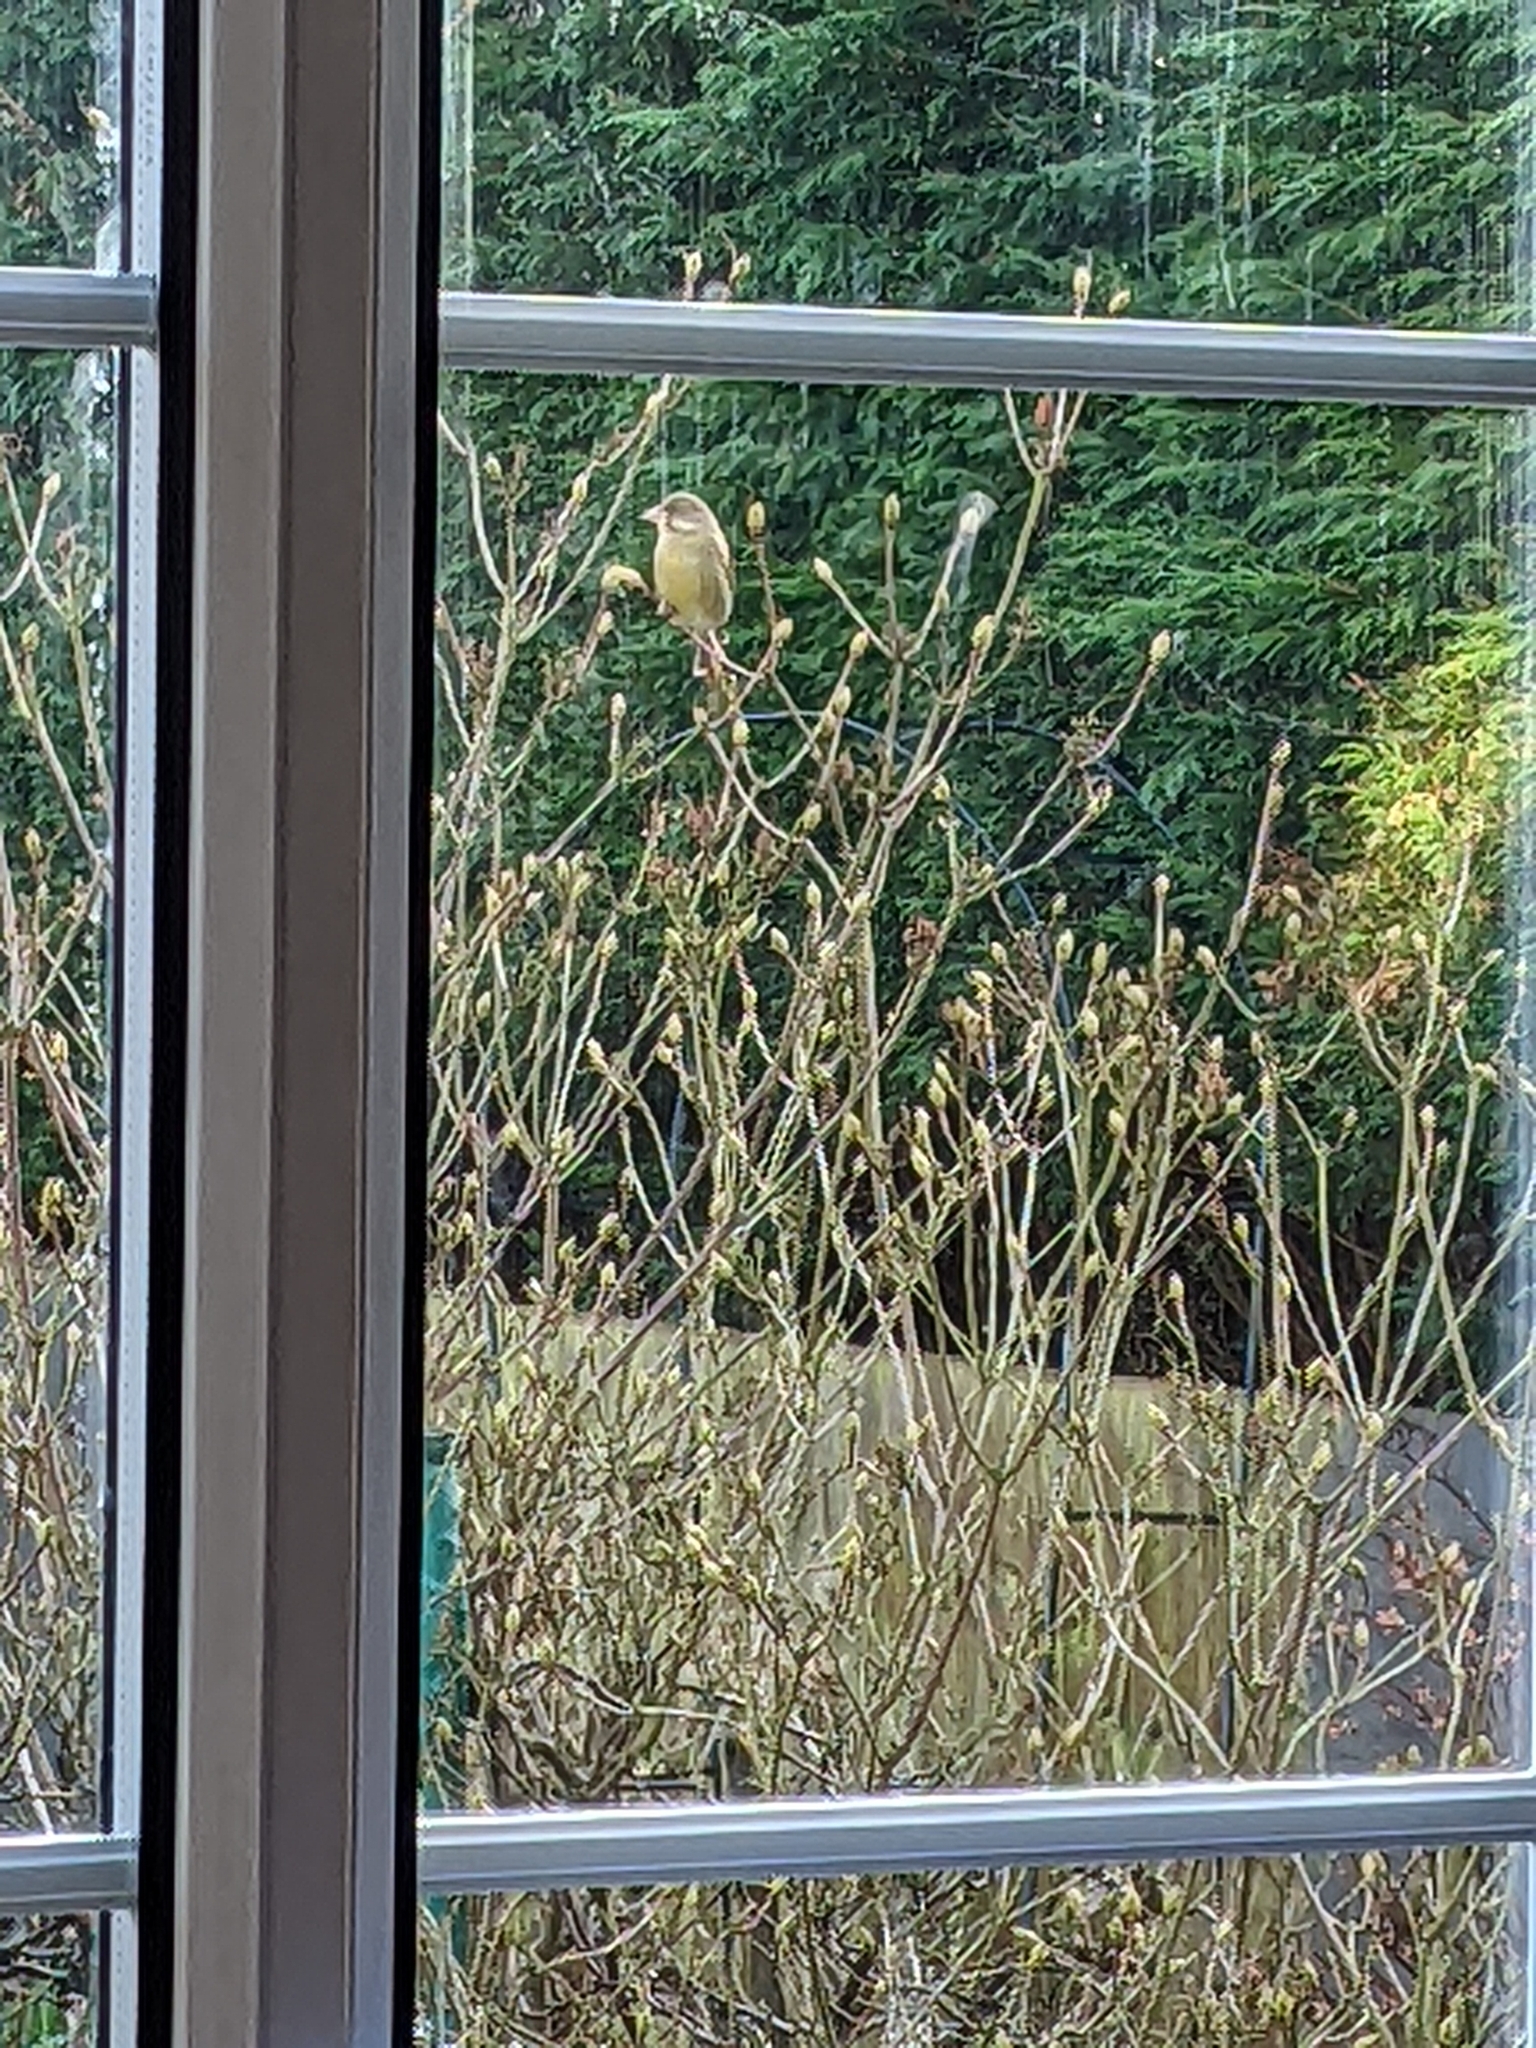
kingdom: Plantae
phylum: Tracheophyta
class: Liliopsida
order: Poales
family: Poaceae
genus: Chloris
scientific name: Chloris chloris
